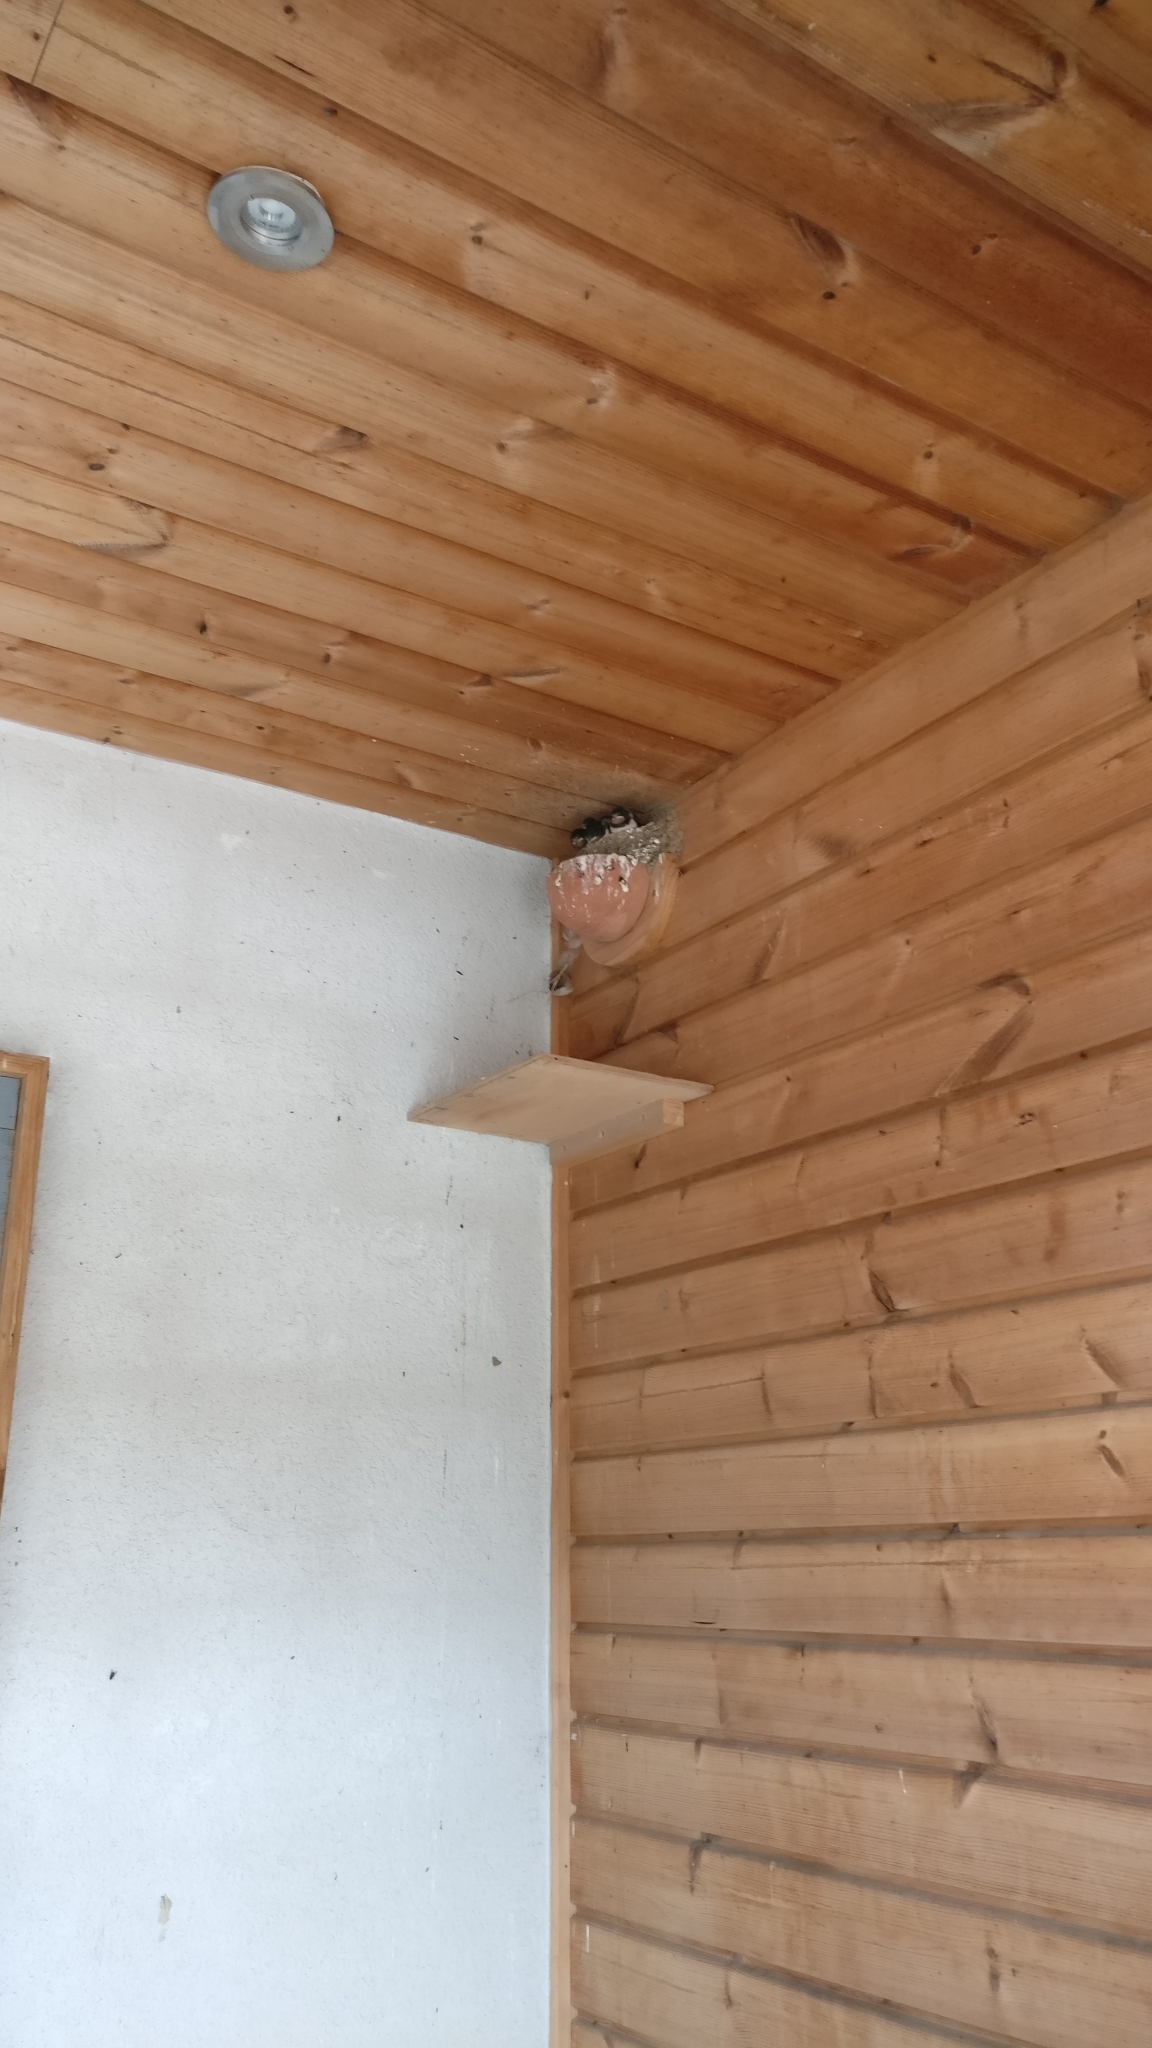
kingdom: Animalia
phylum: Chordata
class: Aves
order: Passeriformes
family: Hirundinidae
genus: Hirundo
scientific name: Hirundo rustica
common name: Barn swallow
